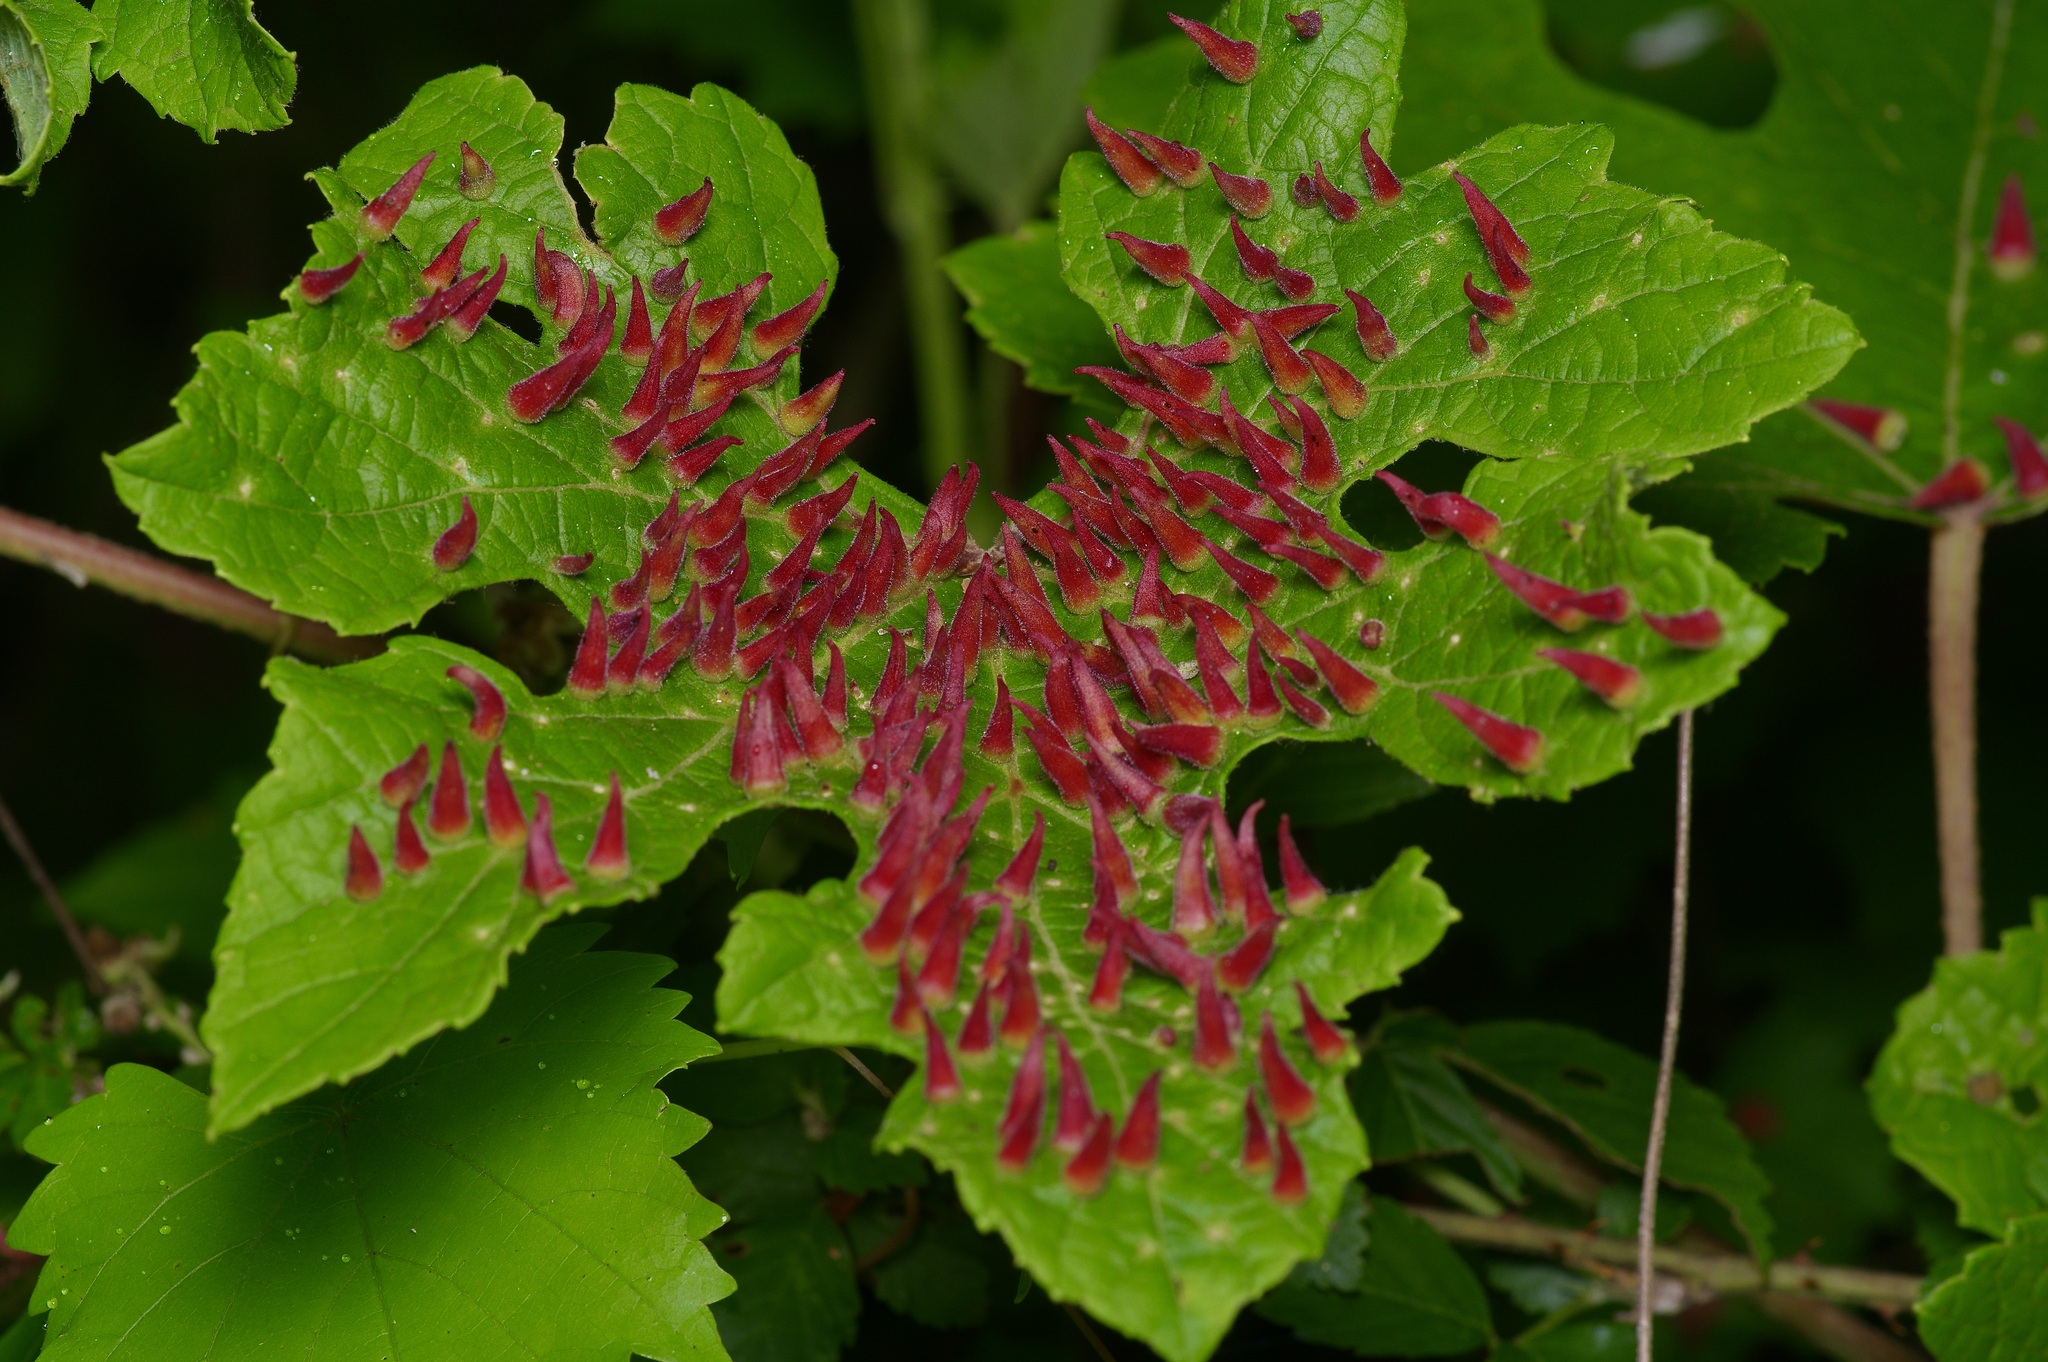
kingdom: Animalia
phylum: Arthropoda
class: Insecta
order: Diptera
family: Cecidomyiidae
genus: Ampelomyia
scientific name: Ampelomyia viticola
